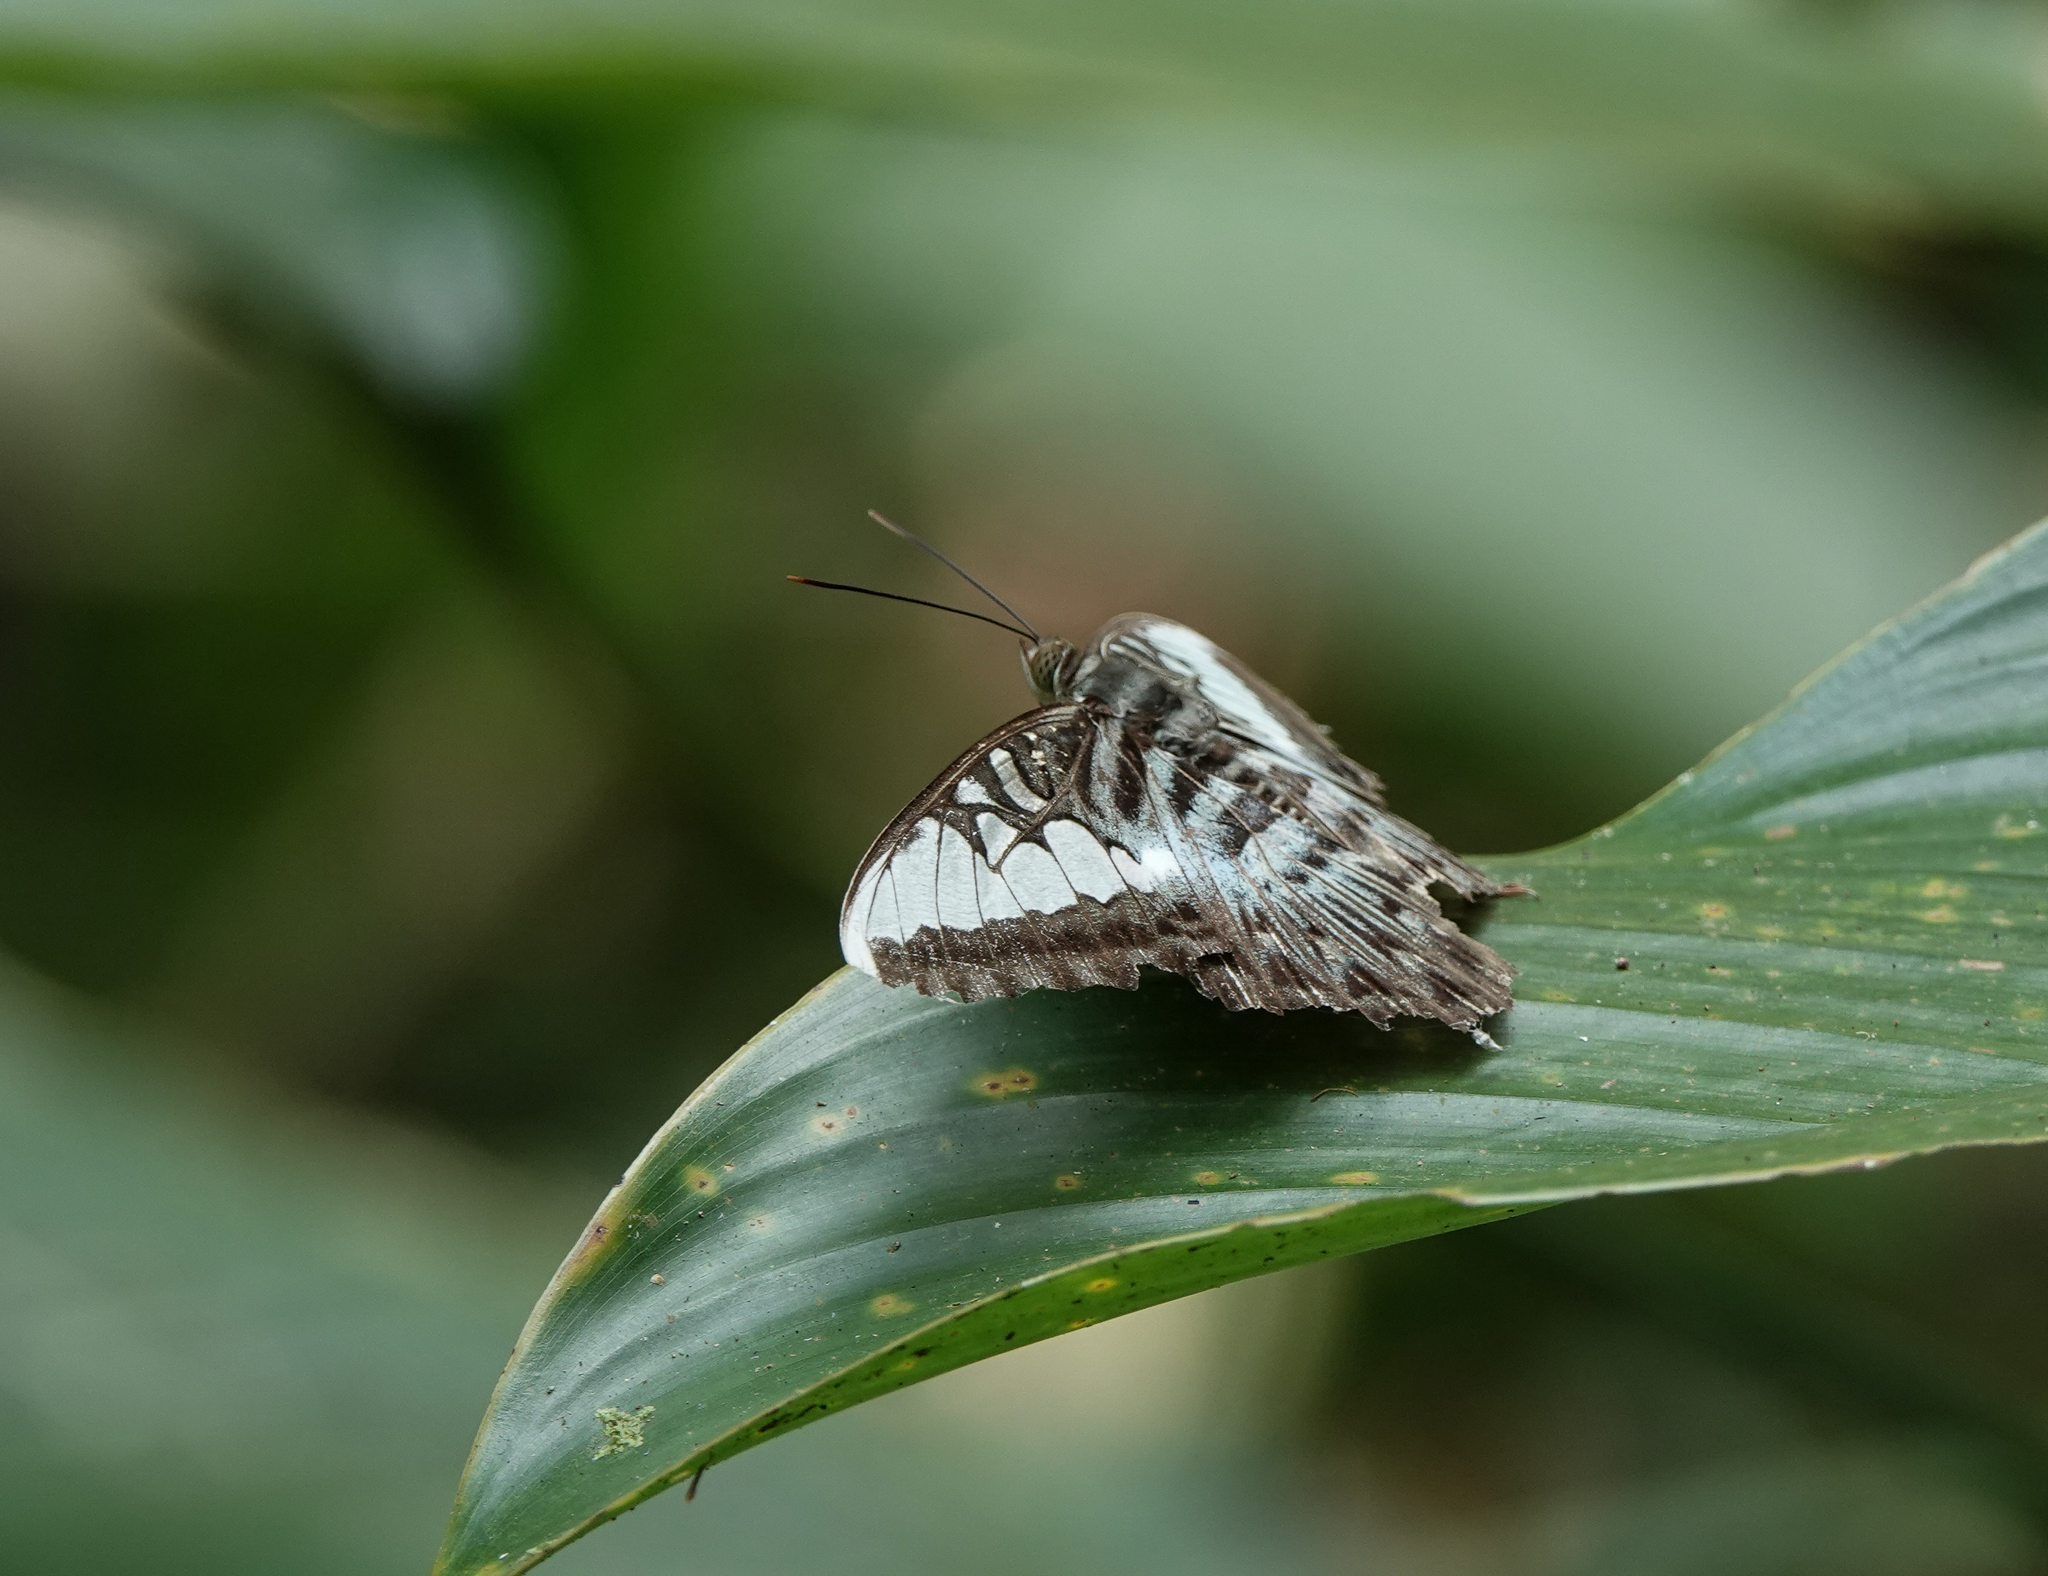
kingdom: Animalia
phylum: Arthropoda
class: Insecta
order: Lepidoptera
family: Nymphalidae
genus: Kallima
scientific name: Kallima sylvia
